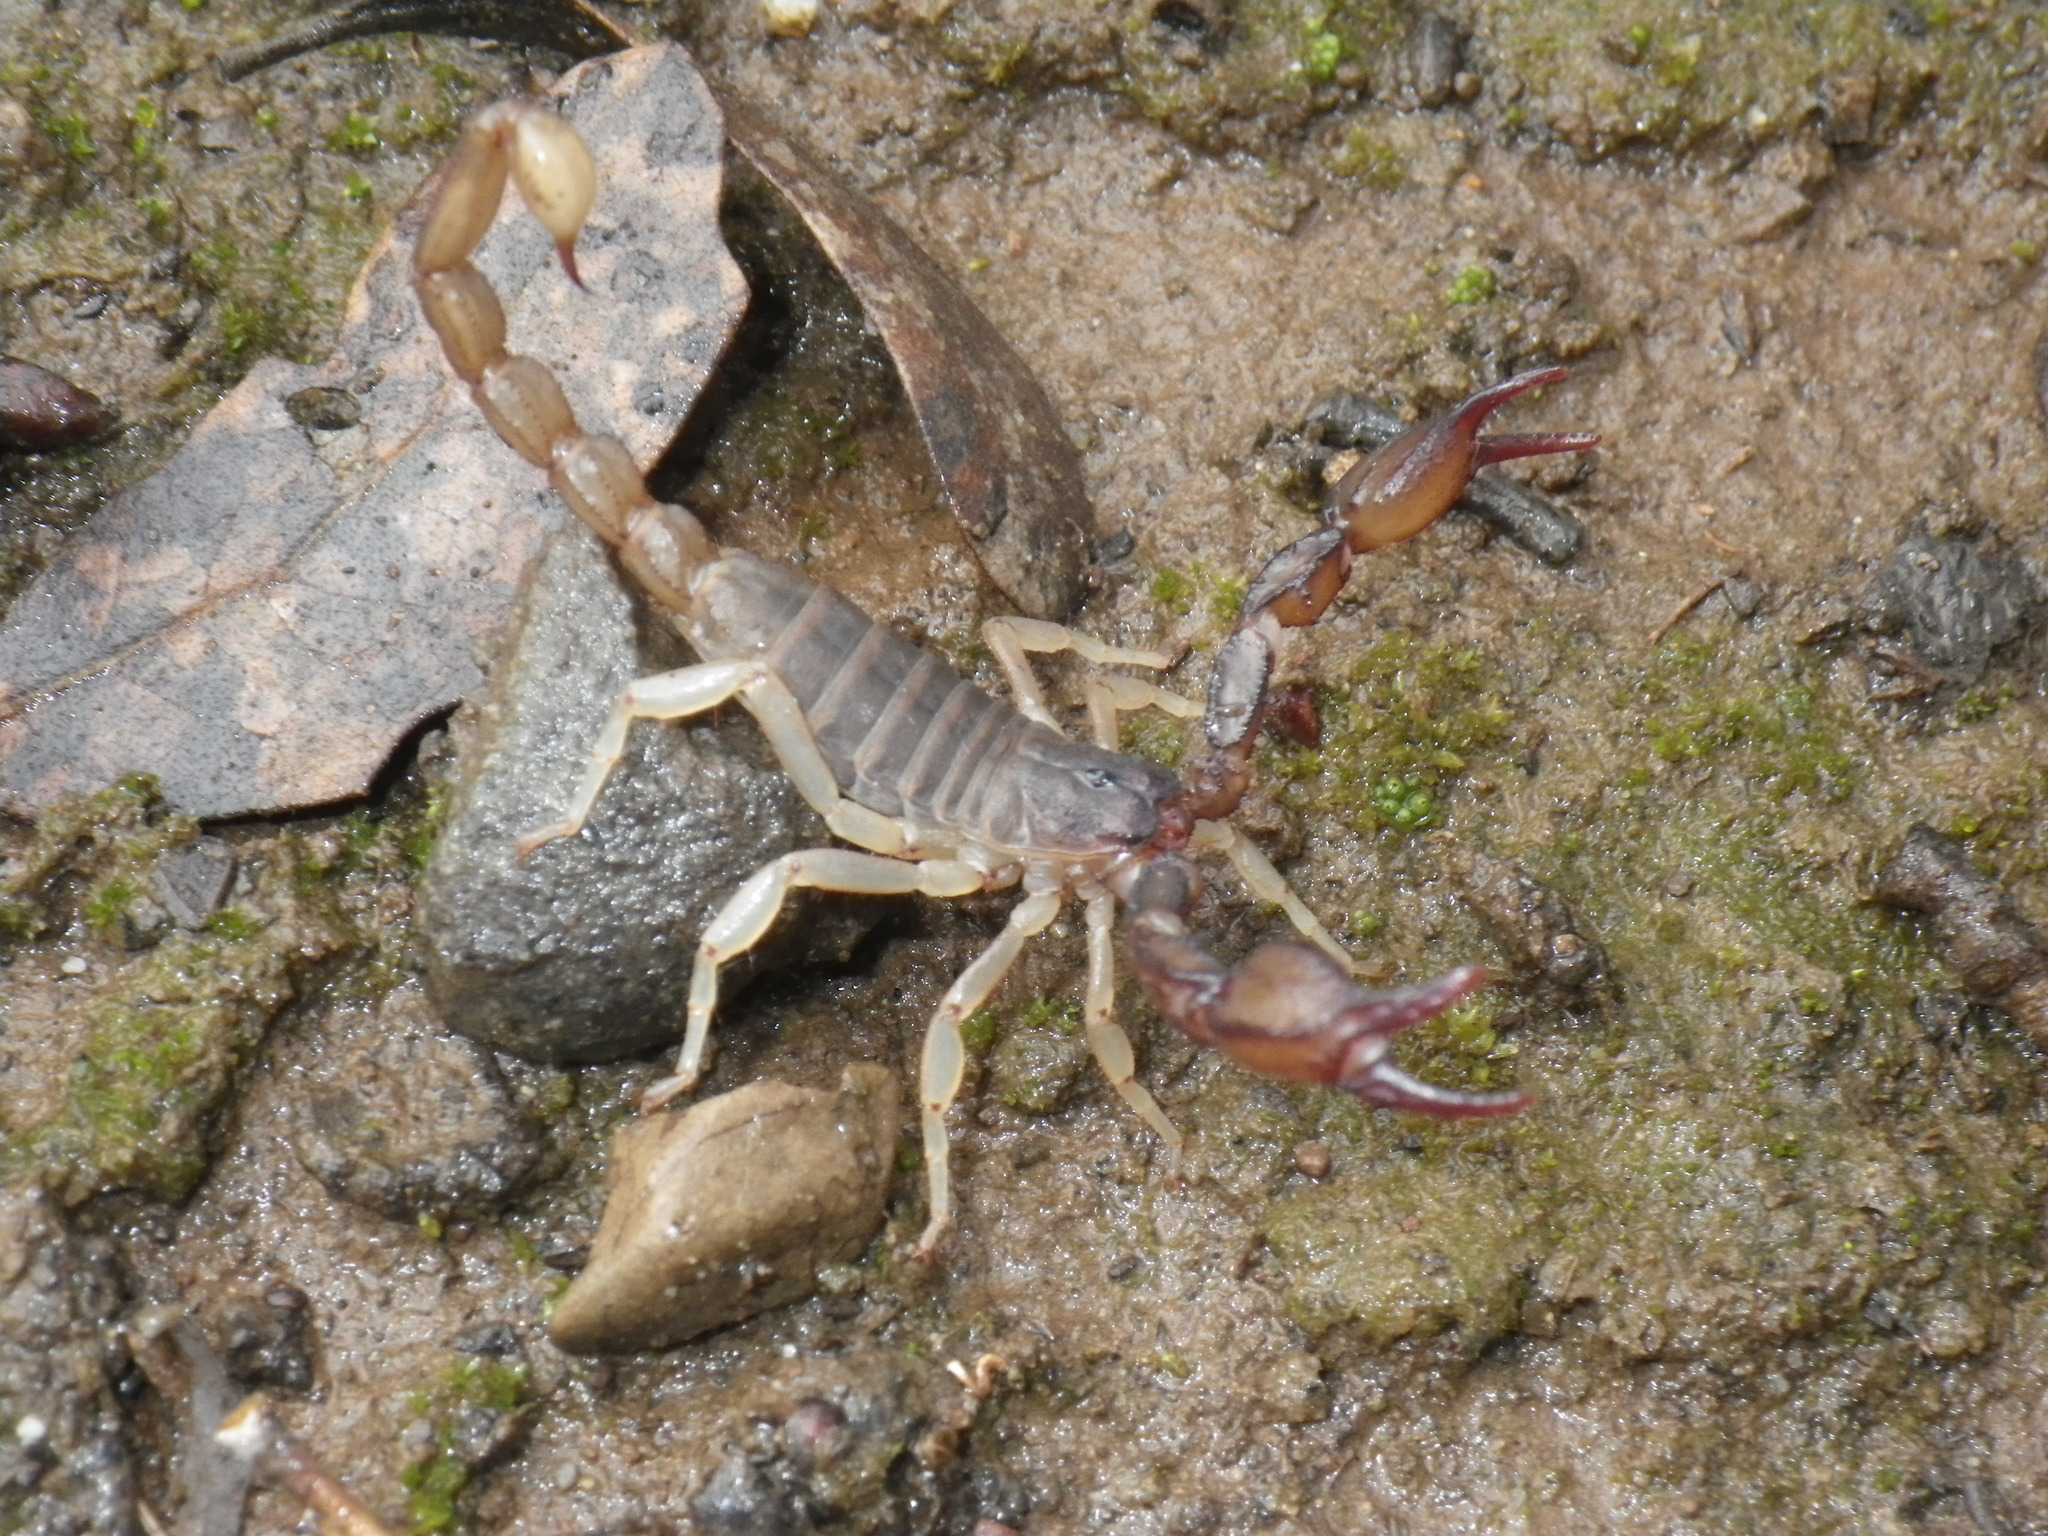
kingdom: Animalia
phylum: Arthropoda
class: Arachnida
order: Scorpiones
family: Chactidae
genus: Uroctonus
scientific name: Uroctonus mordax
